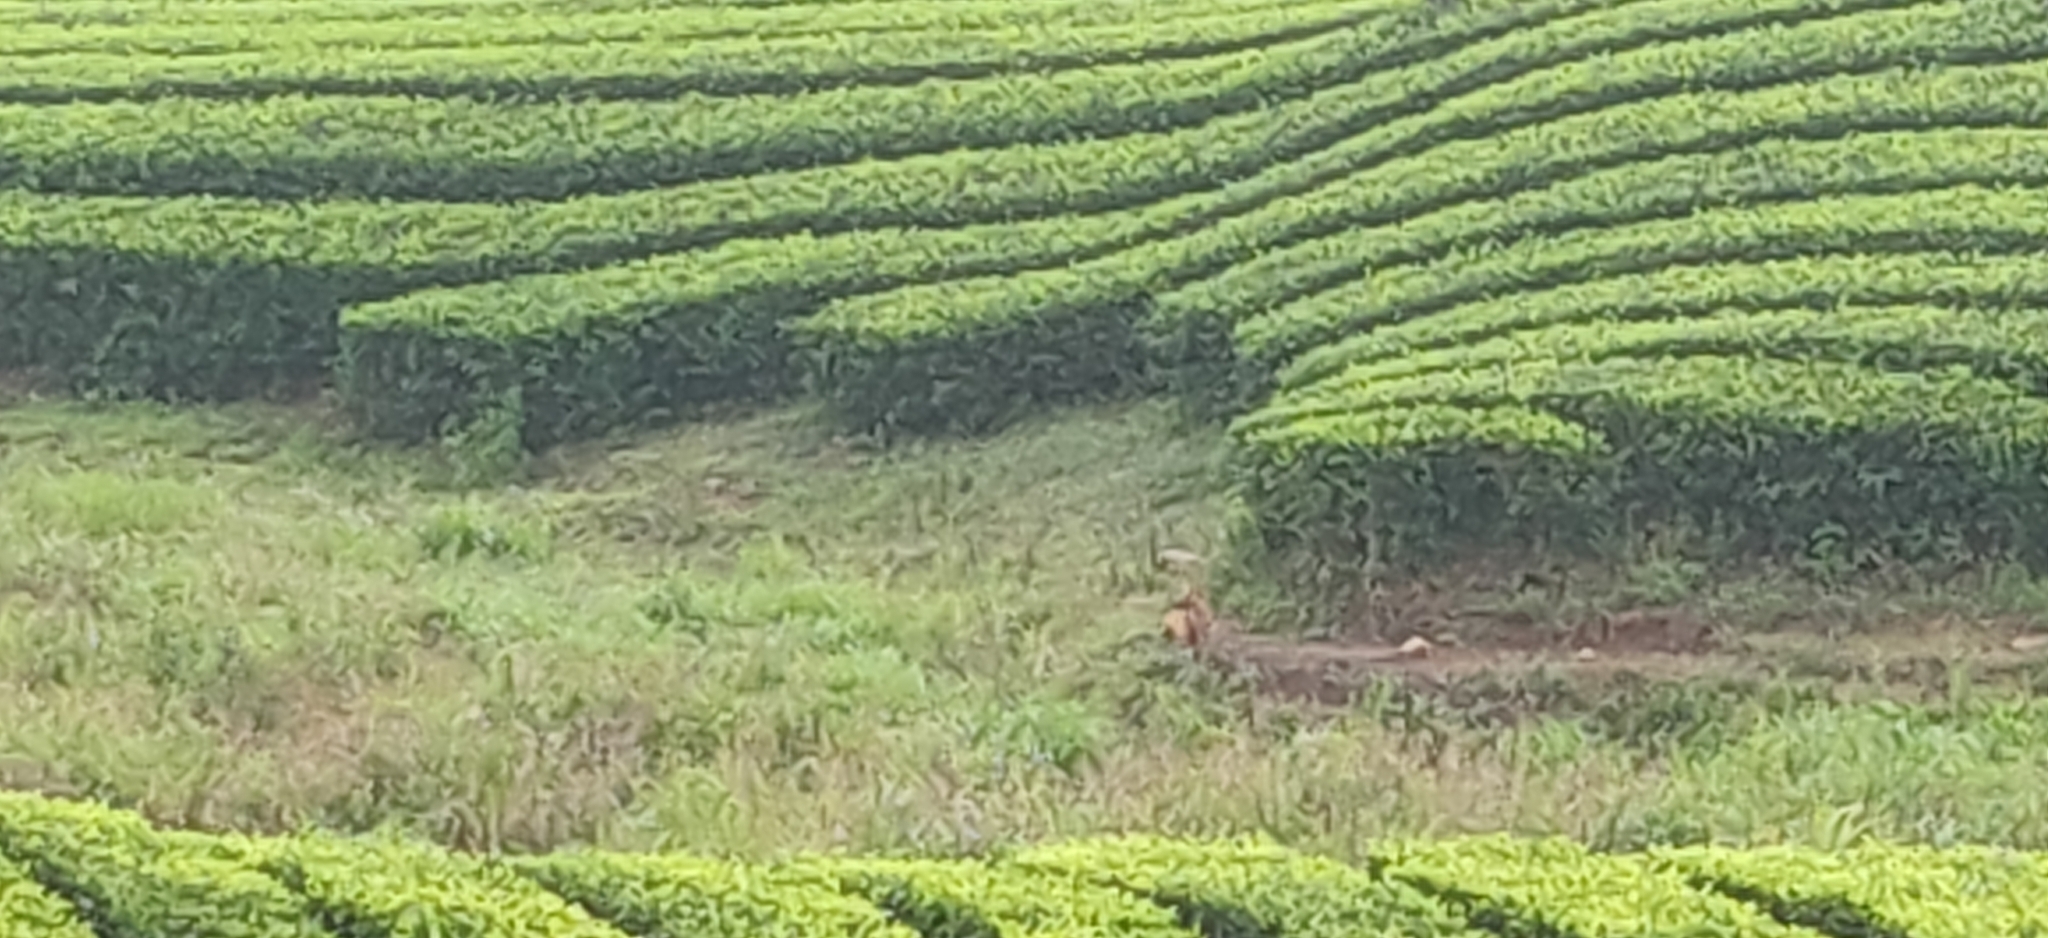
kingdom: Animalia
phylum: Chordata
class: Mammalia
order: Carnivora
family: Canidae
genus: Cuon
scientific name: Cuon alpinus
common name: Dhole
